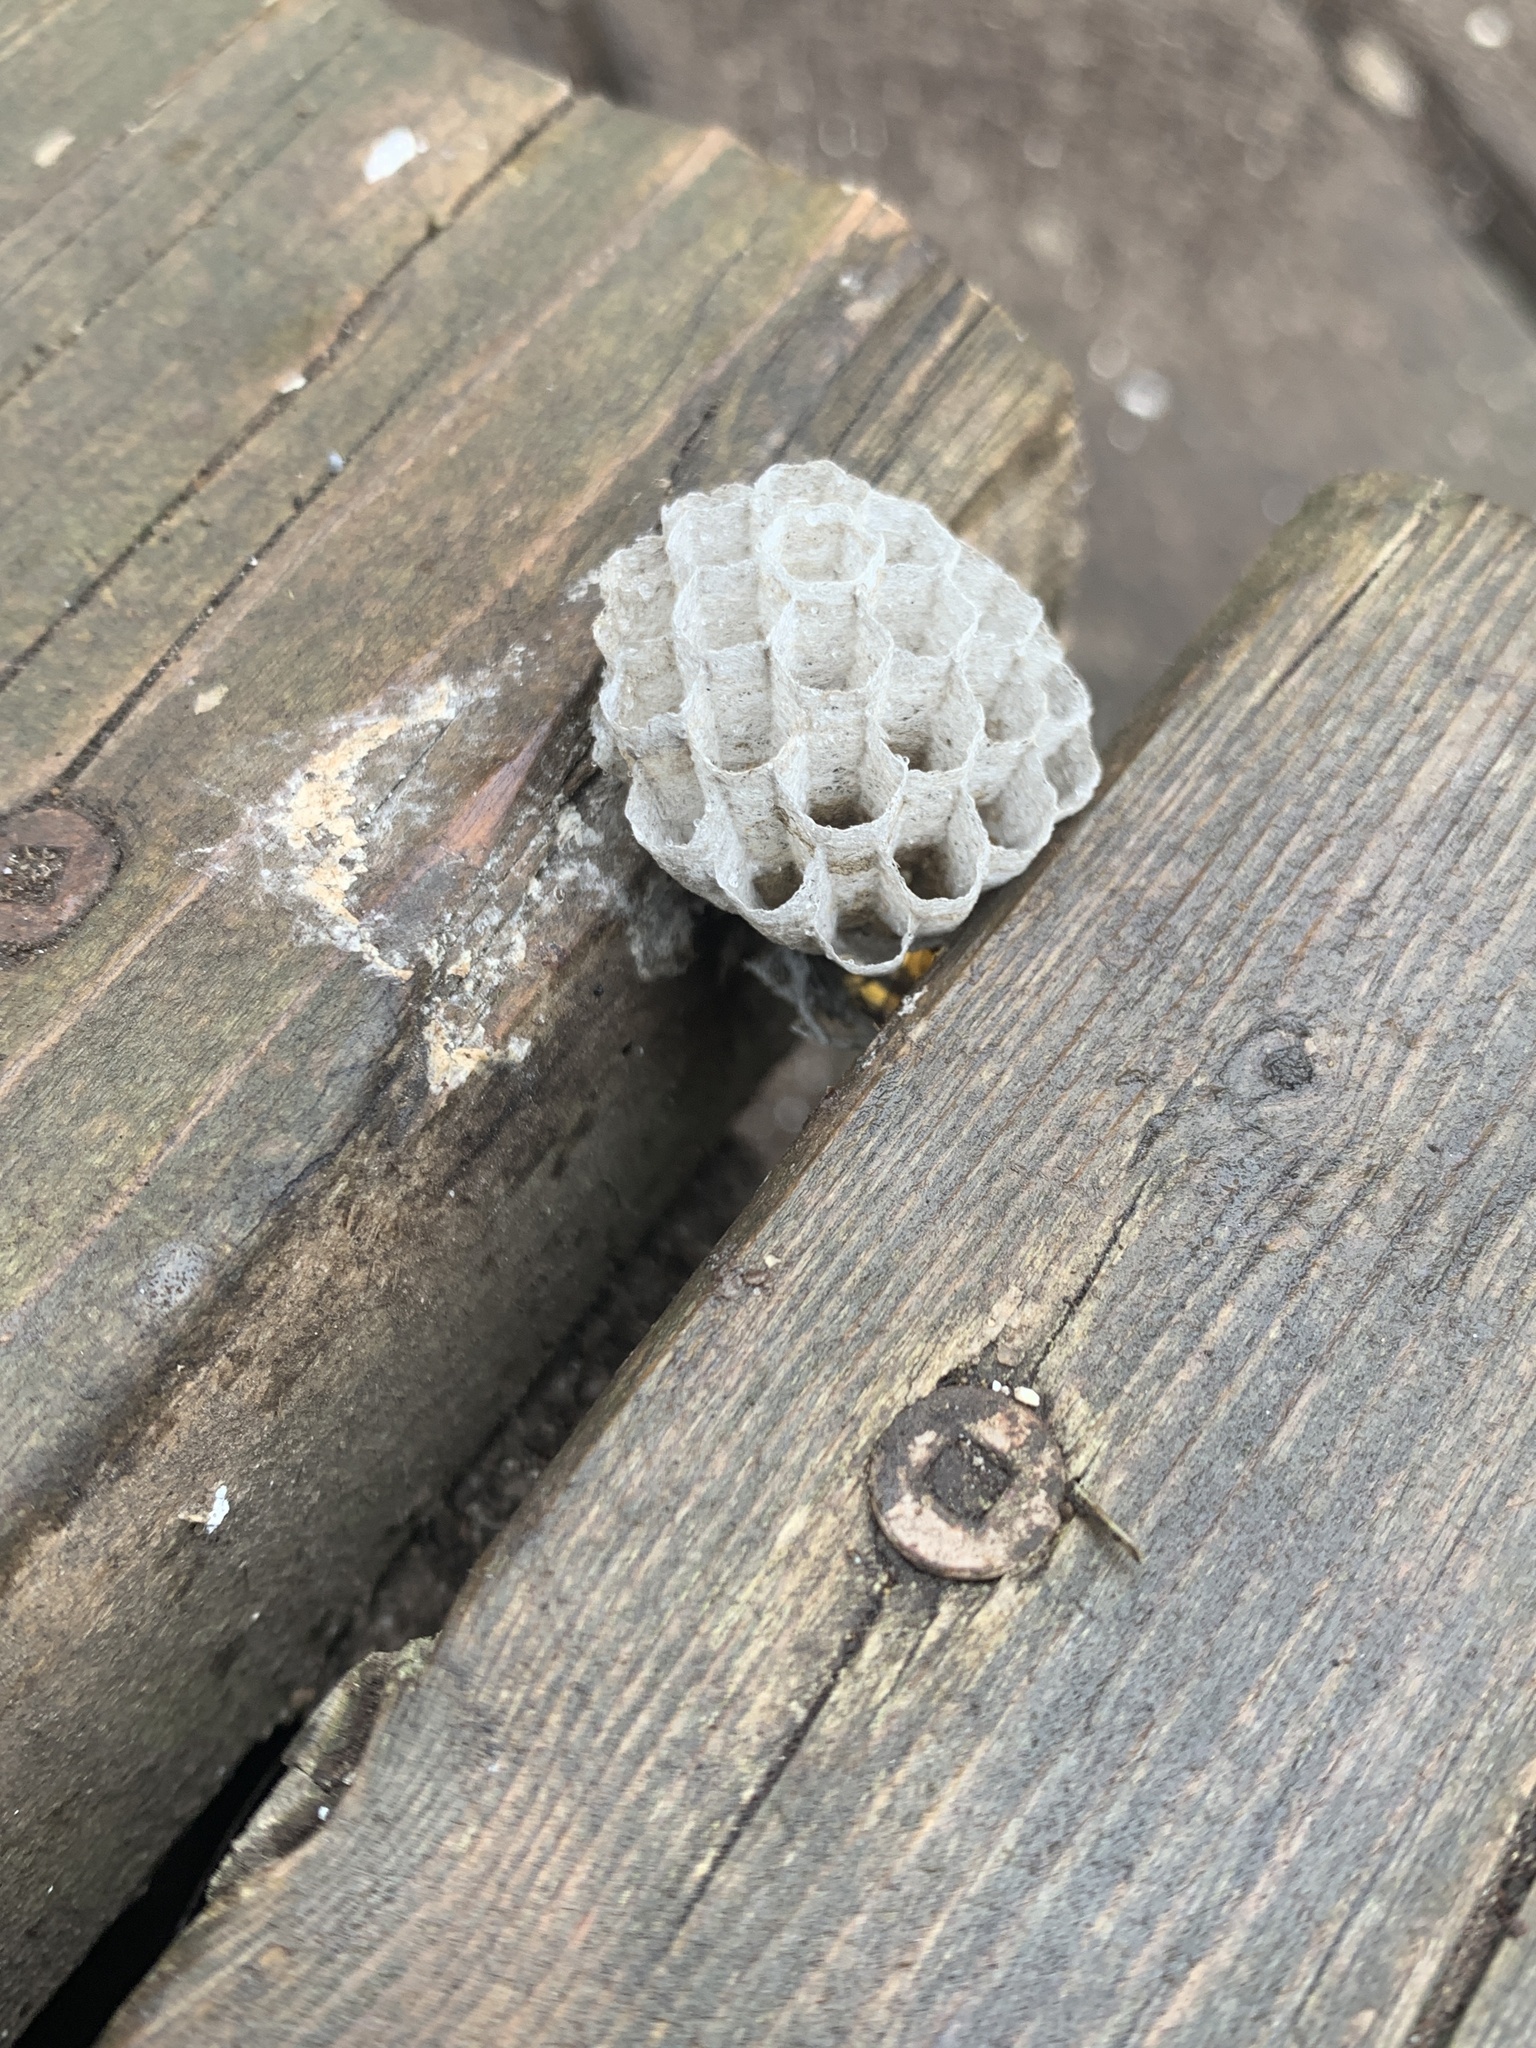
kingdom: Animalia
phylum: Arthropoda
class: Insecta
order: Hymenoptera
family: Vespidae
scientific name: Vespidae
